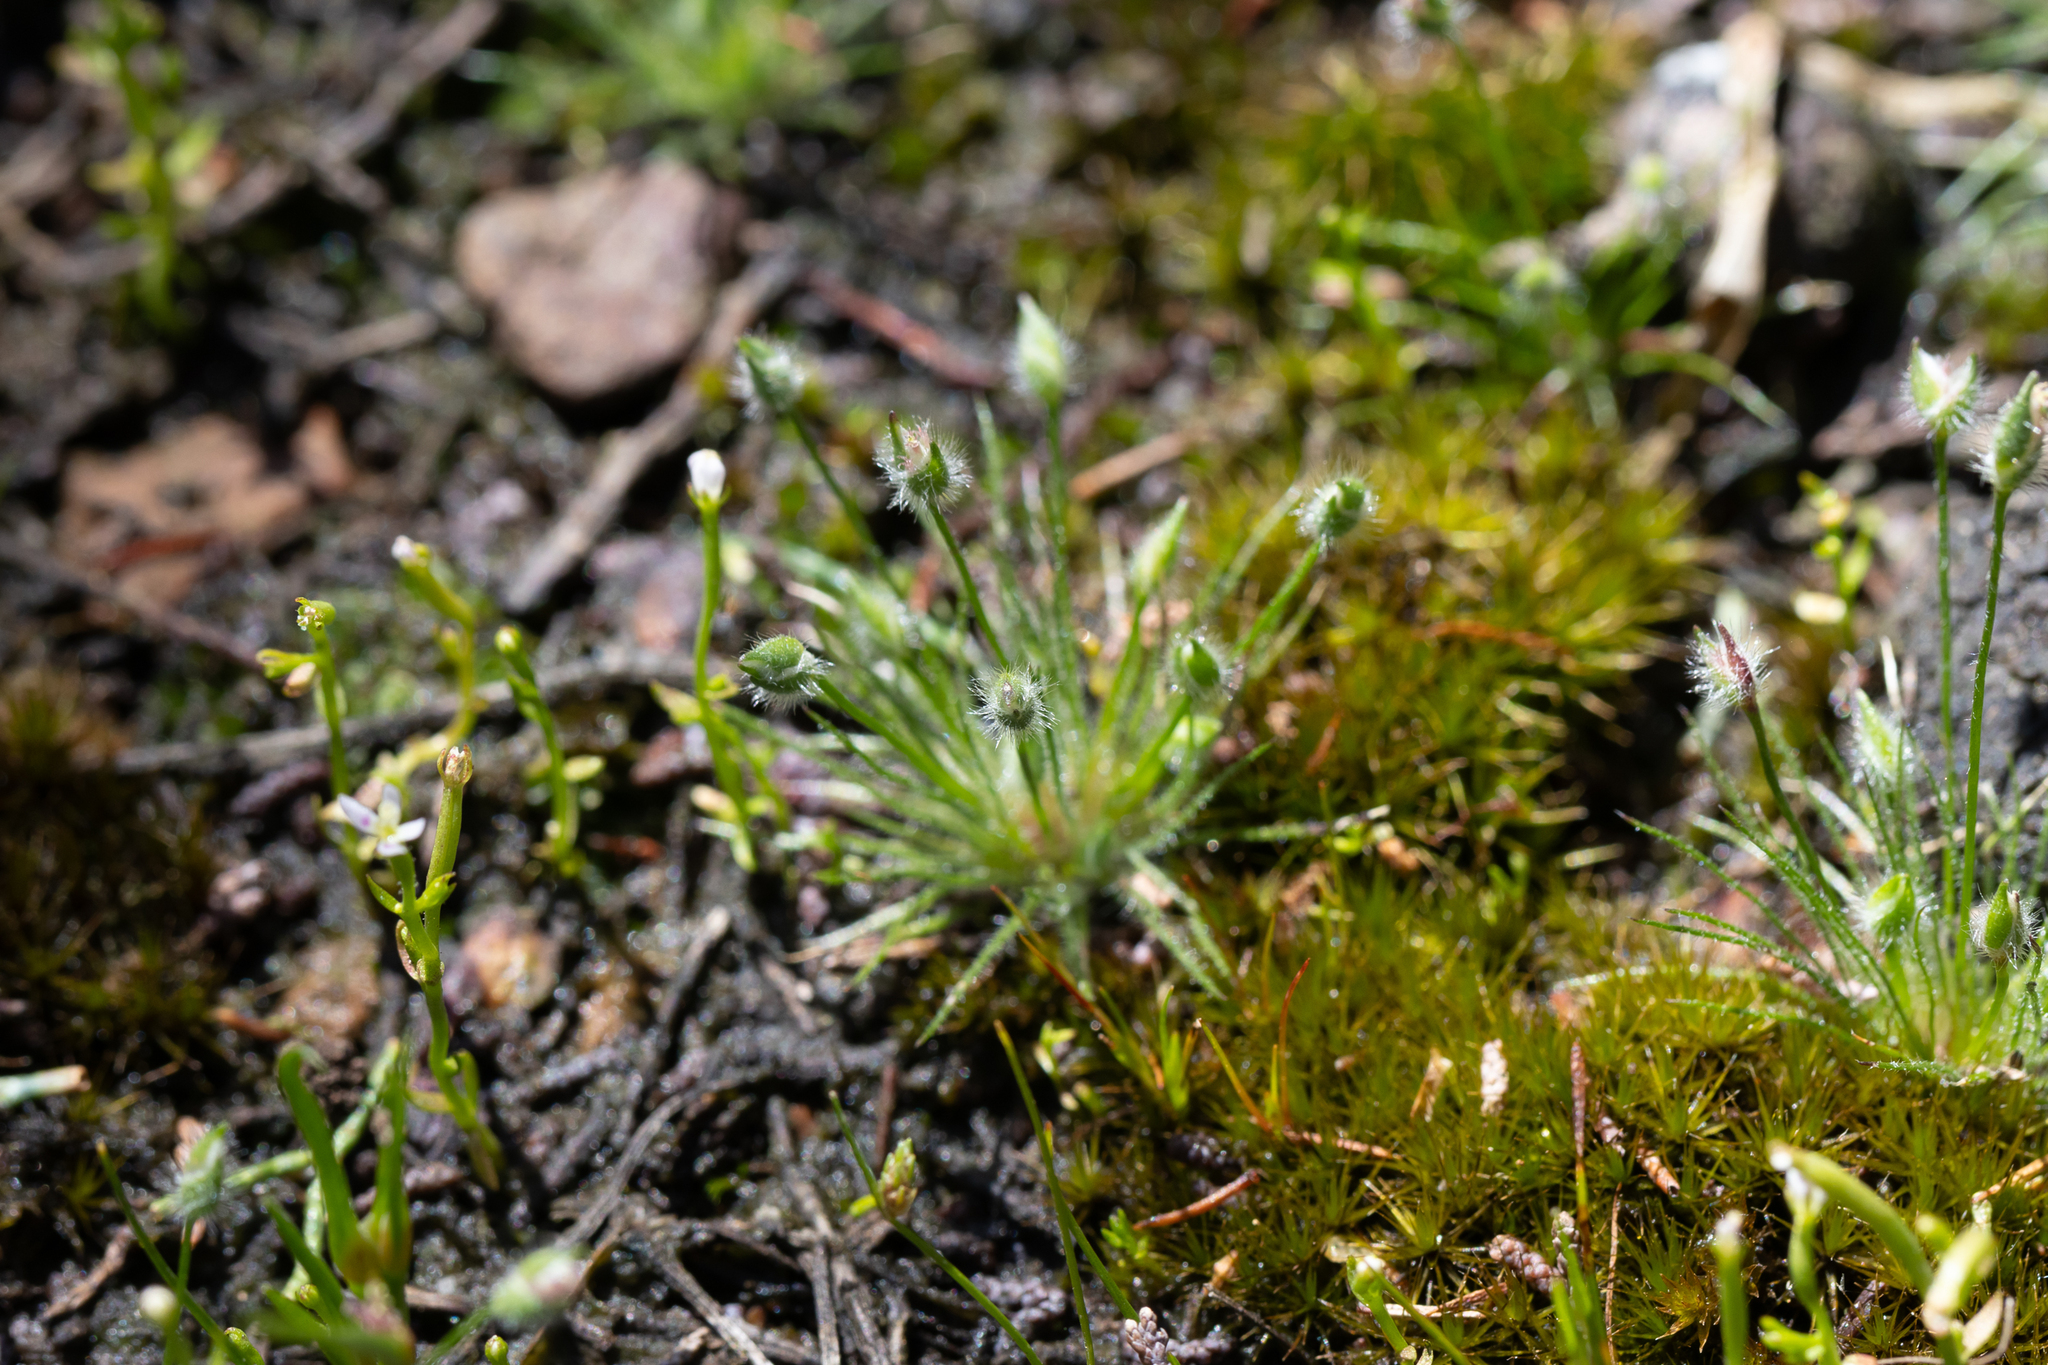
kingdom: Plantae
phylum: Tracheophyta
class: Liliopsida
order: Poales
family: Restionaceae
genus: Centrolepis
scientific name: Centrolepis strigosa
